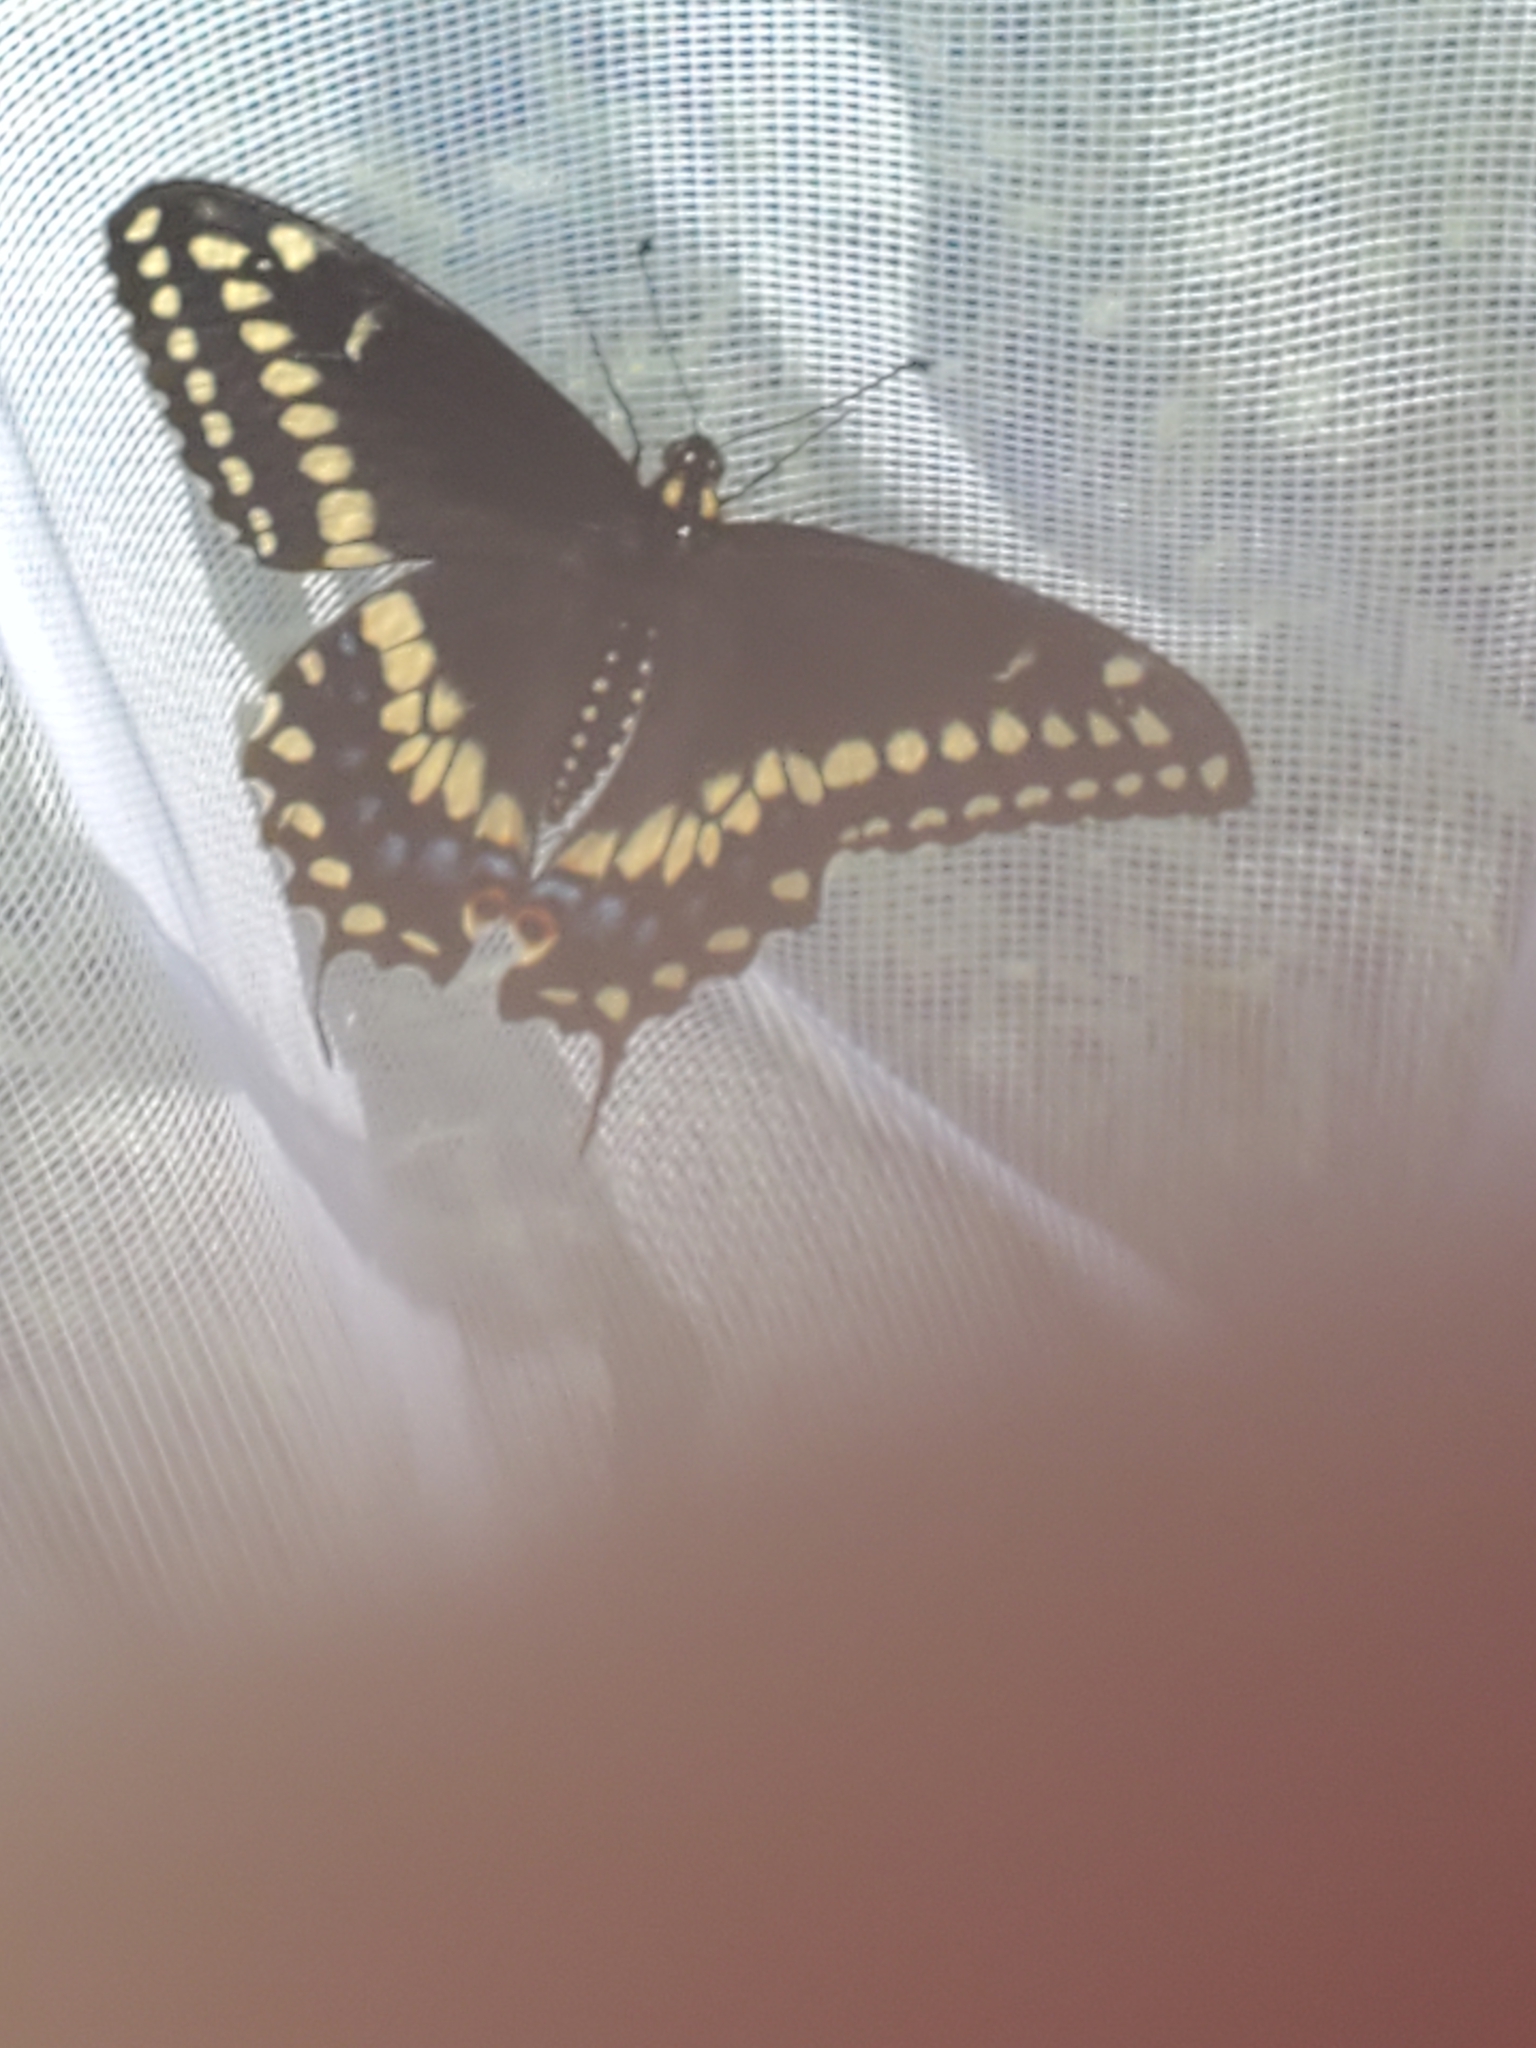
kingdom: Animalia
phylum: Arthropoda
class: Insecta
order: Lepidoptera
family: Papilionidae
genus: Papilio
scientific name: Papilio polyxenes
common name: Black swallowtail
